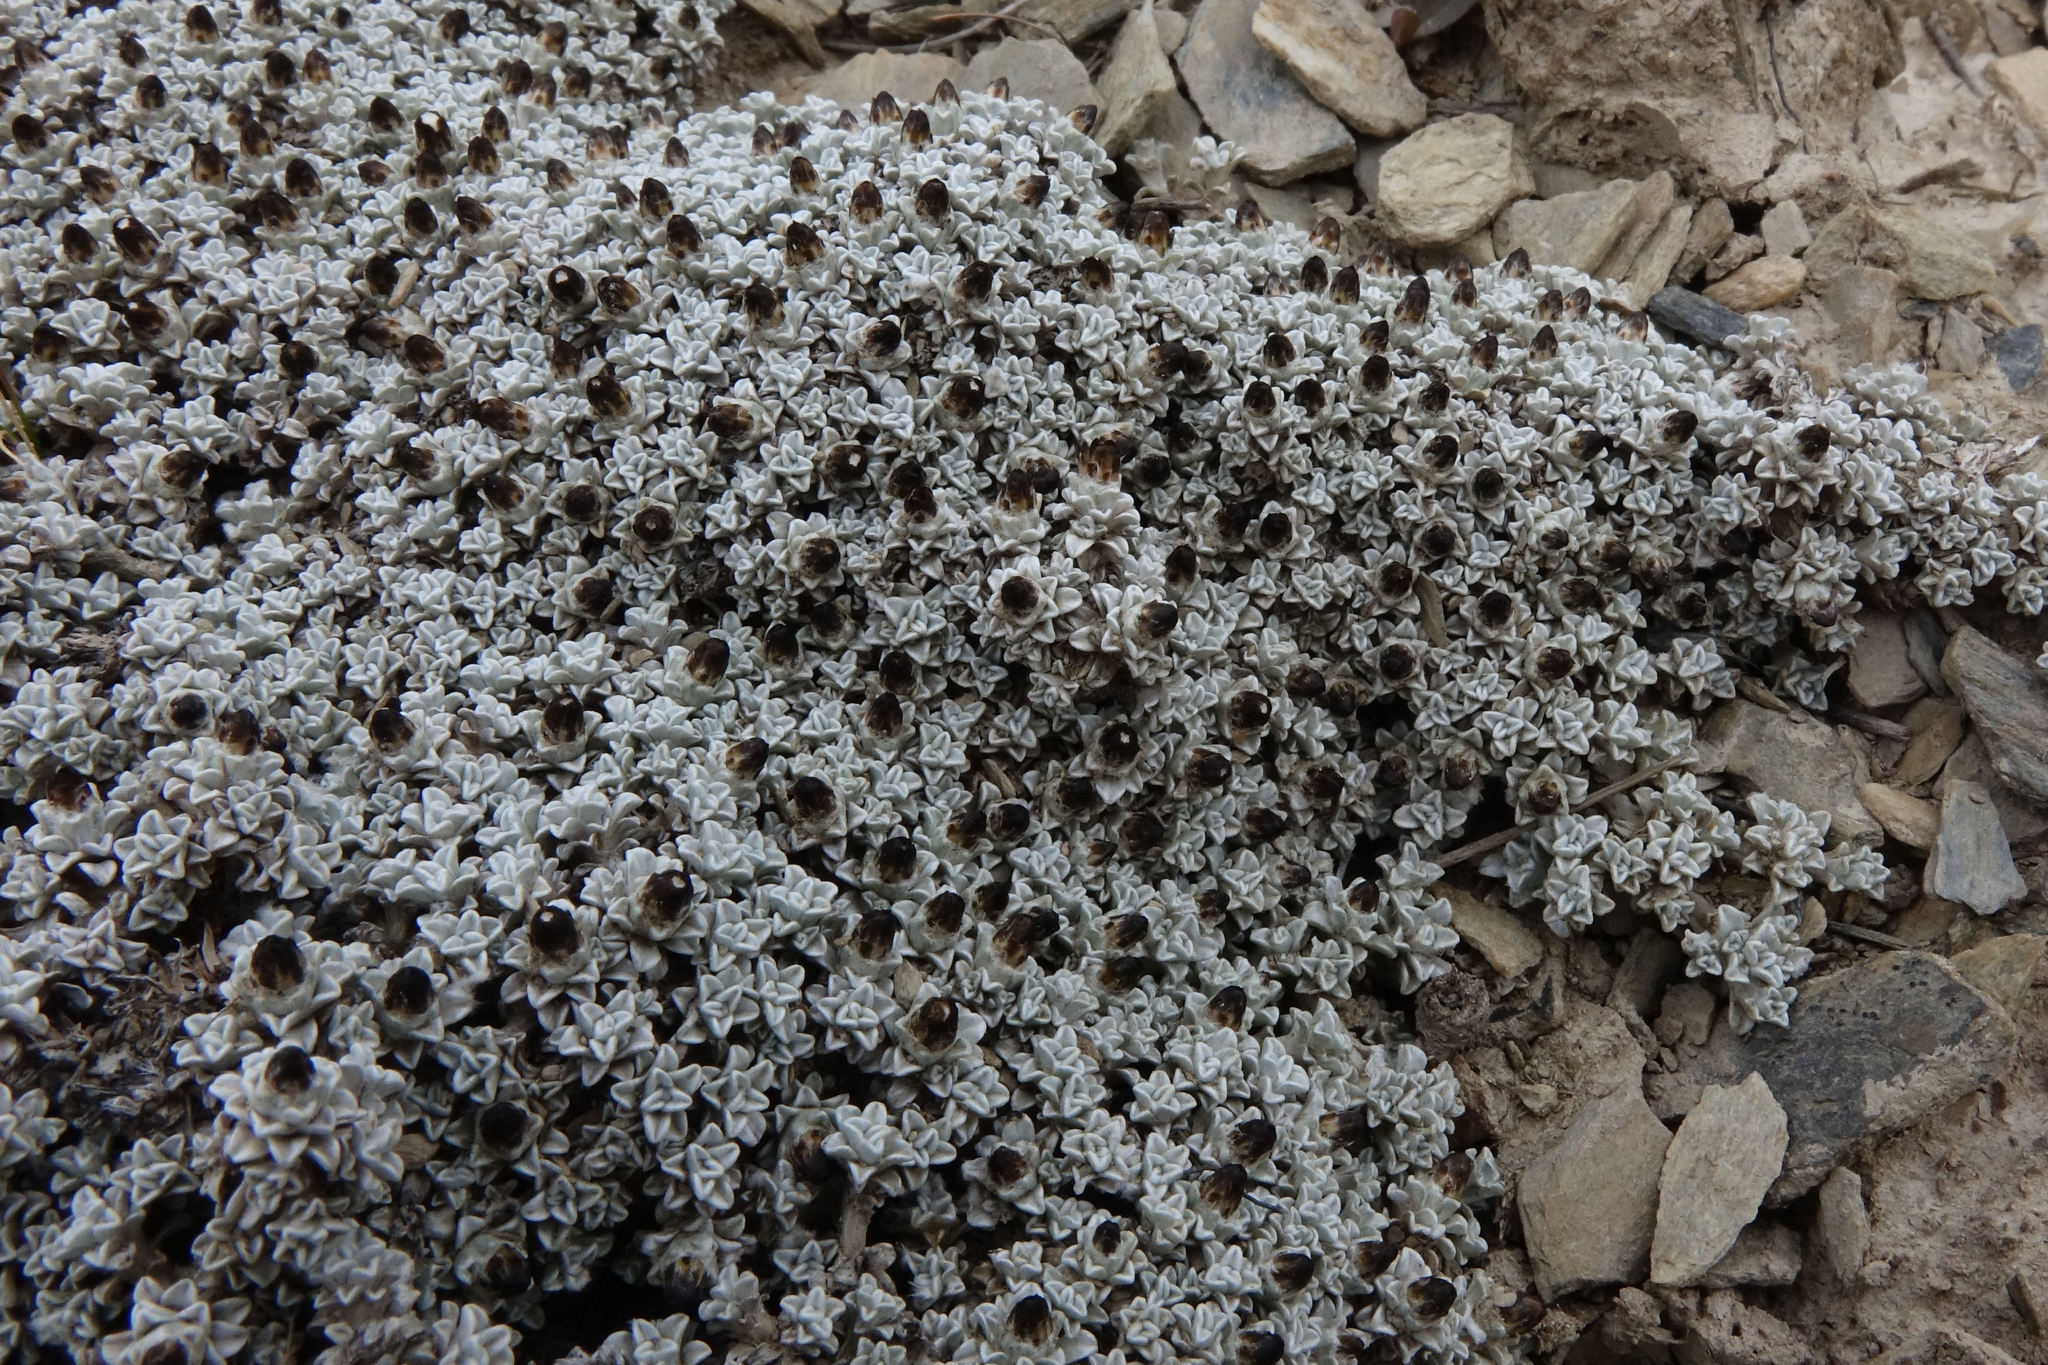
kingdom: Plantae
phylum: Tracheophyta
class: Magnoliopsida
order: Asterales
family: Asteraceae
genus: Raoulia
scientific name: Raoulia apicinigra
